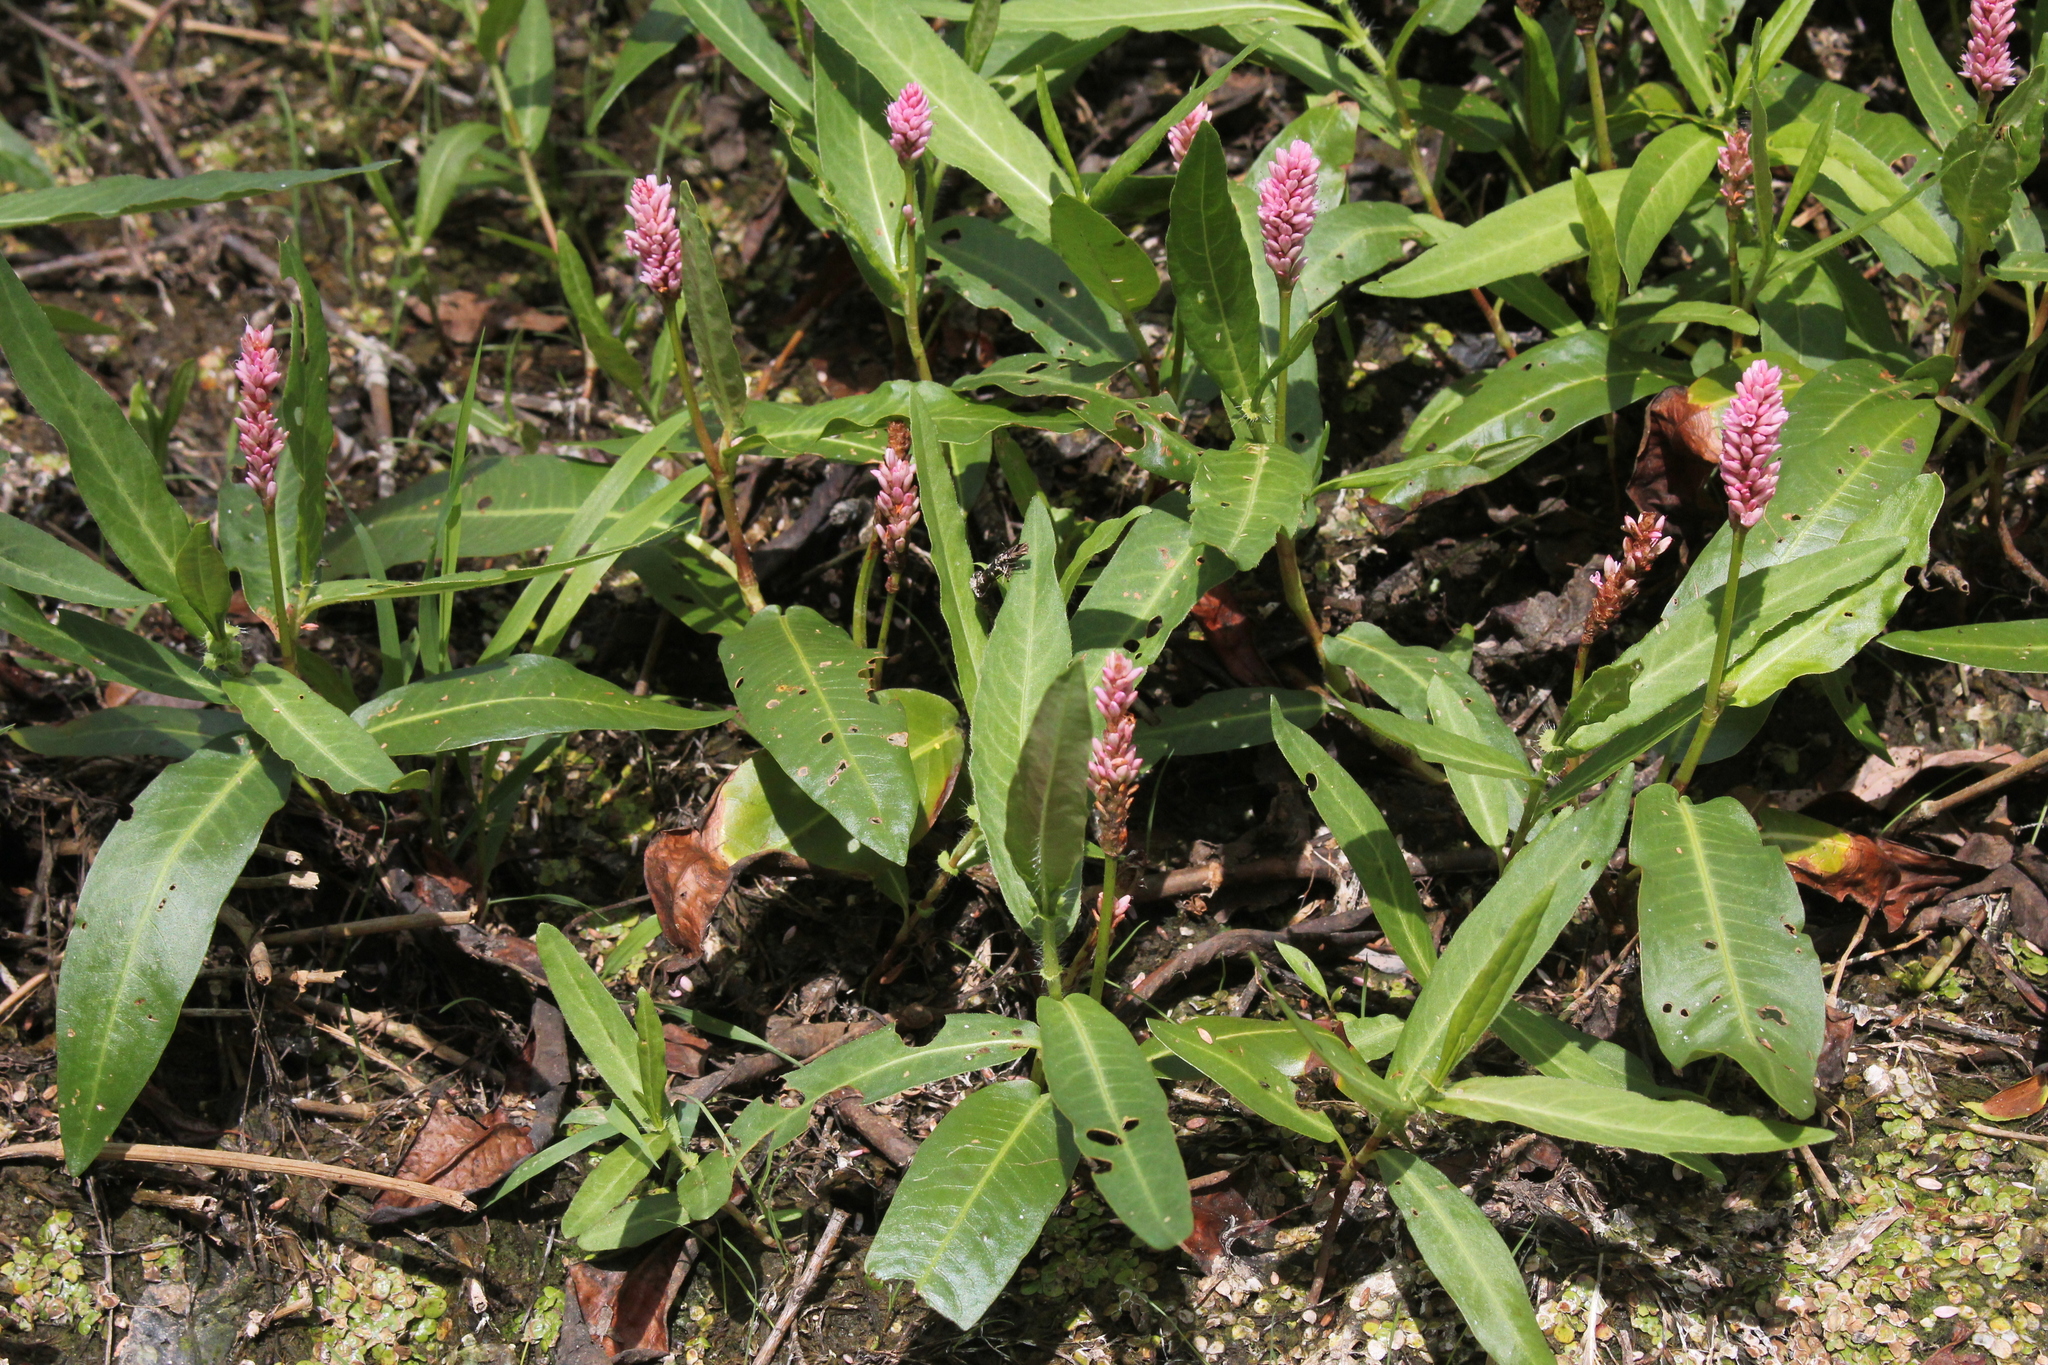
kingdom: Plantae
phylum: Tracheophyta
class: Magnoliopsida
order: Caryophyllales
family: Polygonaceae
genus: Persicaria
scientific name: Persicaria amphibia
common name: Amphibious bistort
